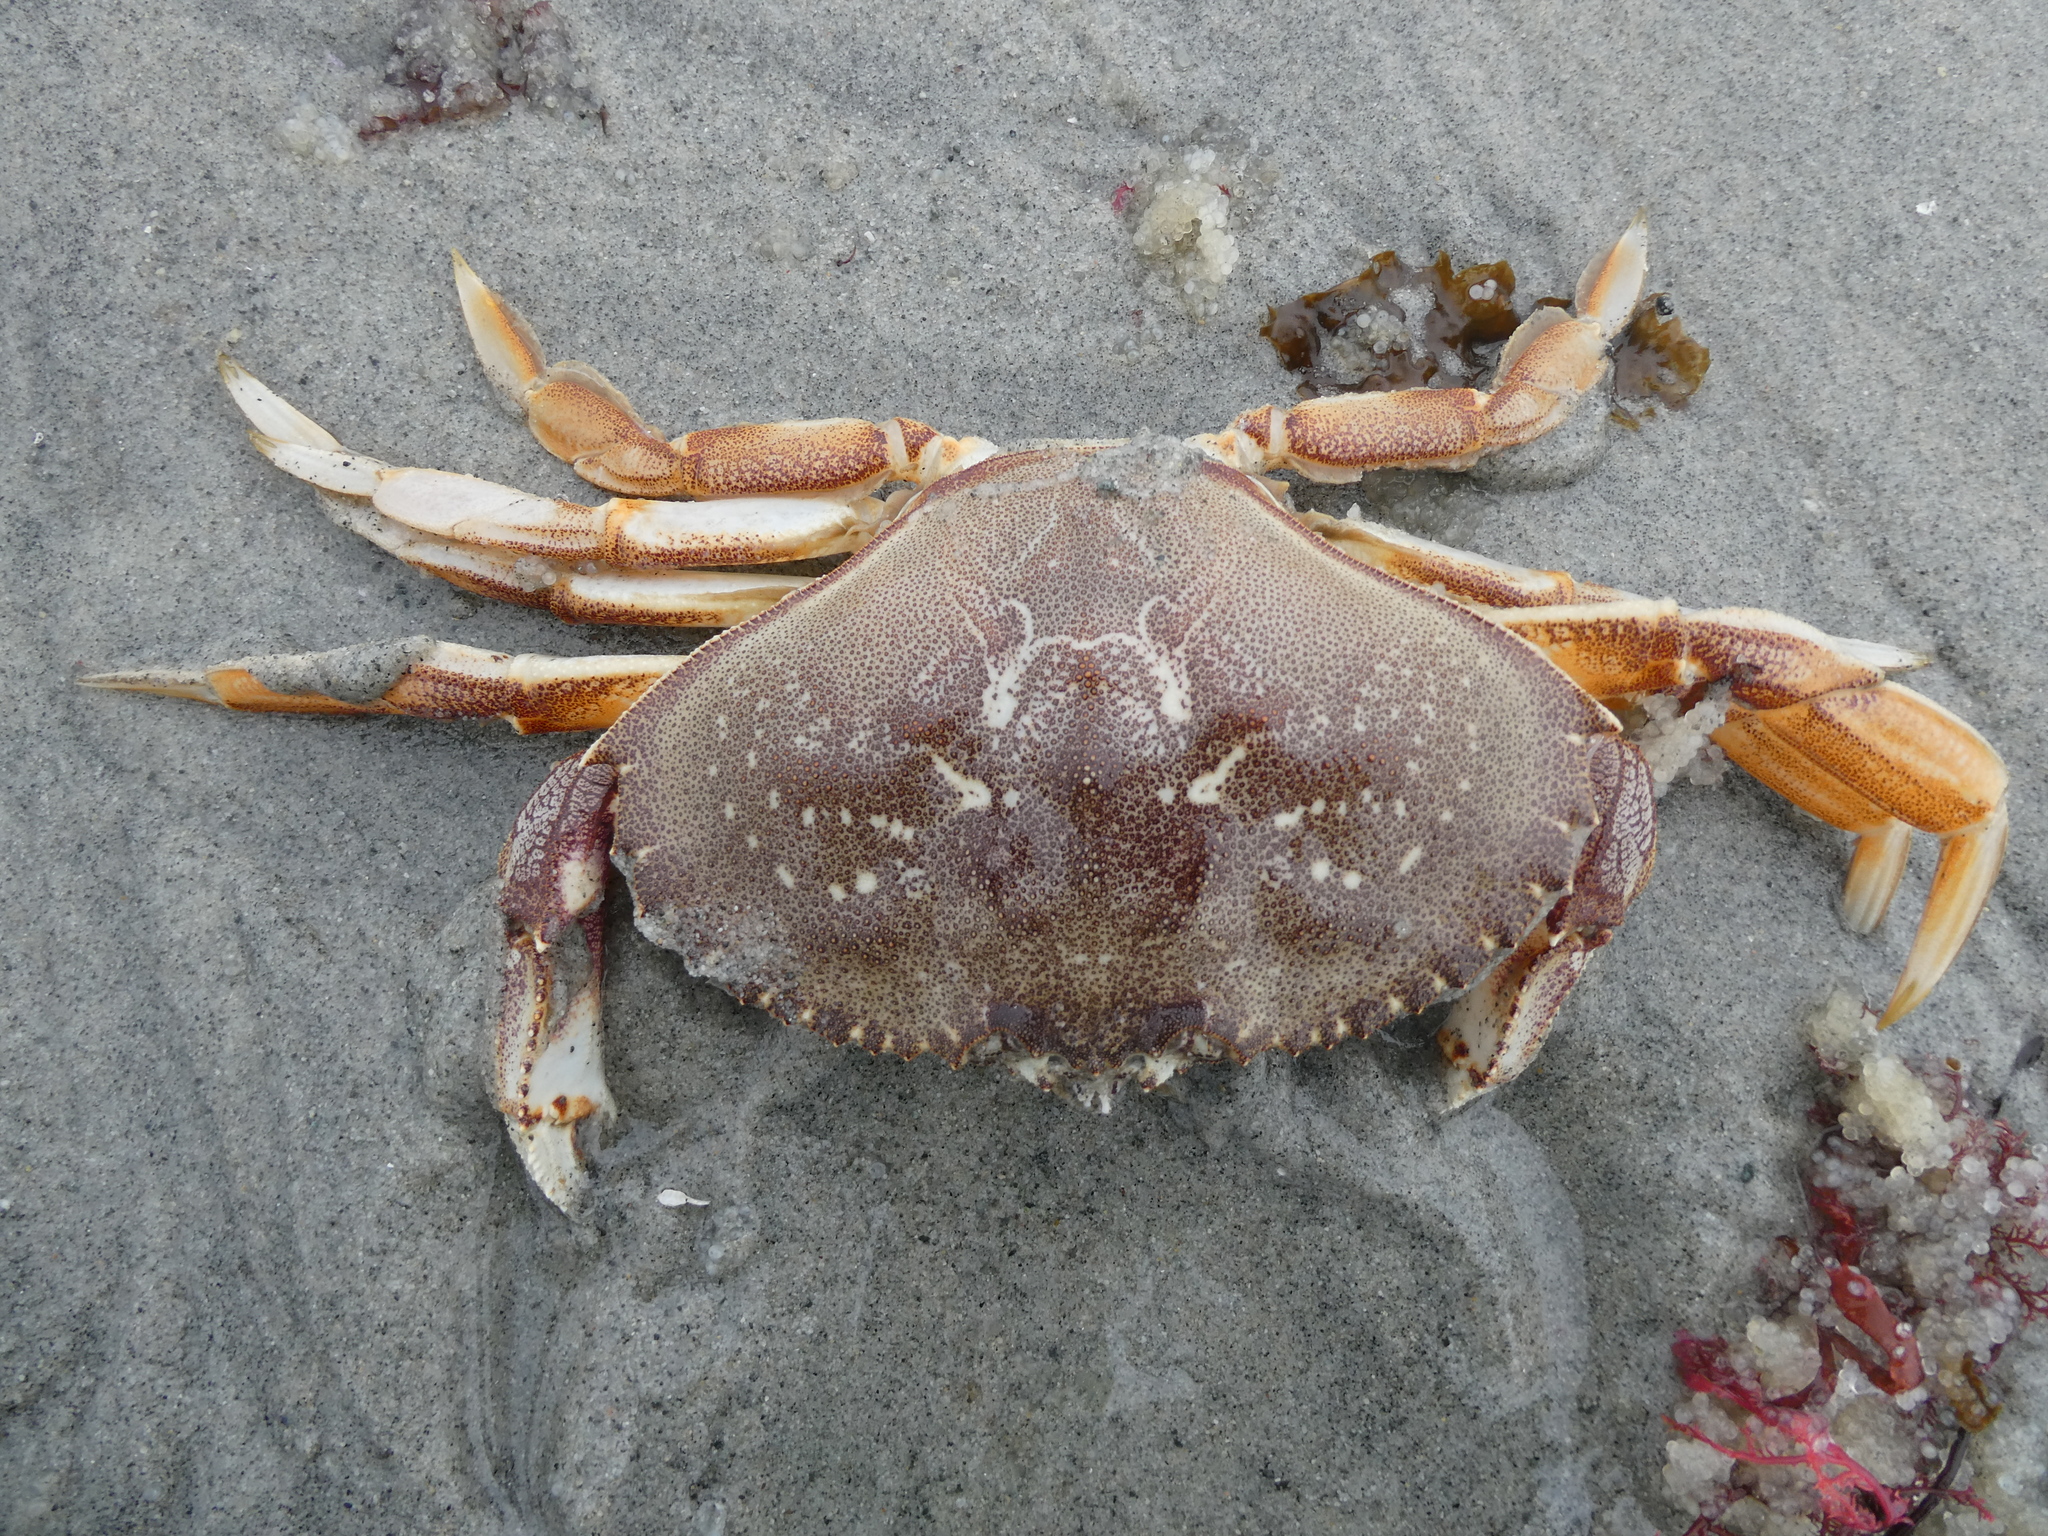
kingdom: Animalia
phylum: Arthropoda
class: Malacostraca
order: Decapoda
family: Cancridae
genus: Metacarcinus
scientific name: Metacarcinus magister
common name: Californian crab
